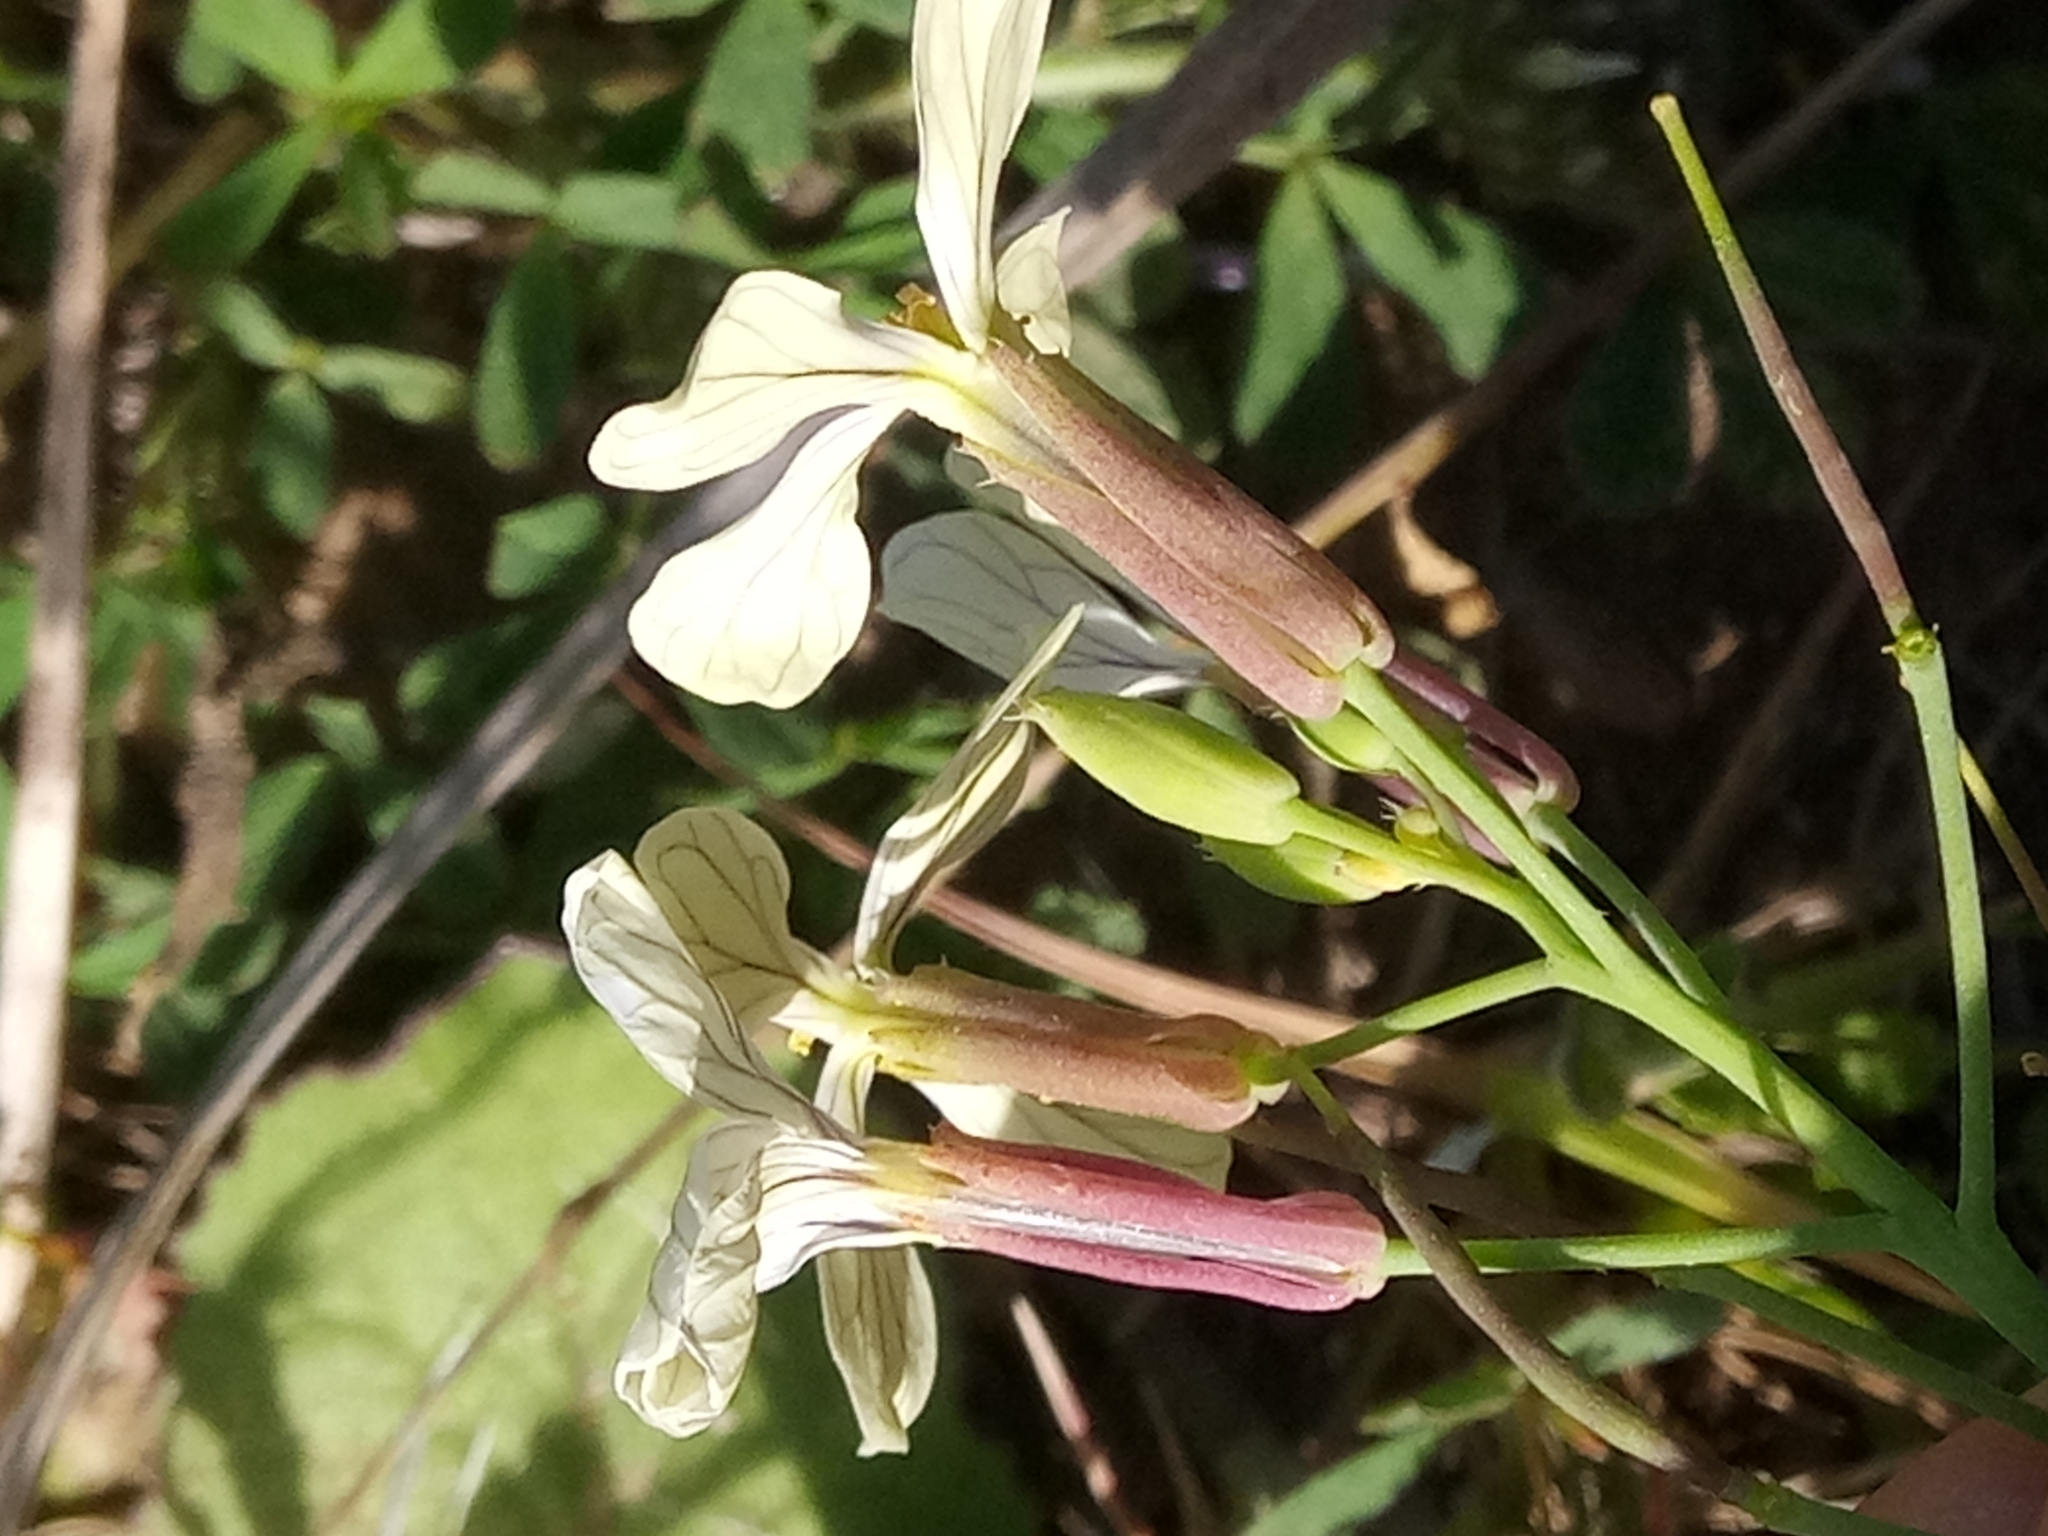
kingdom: Plantae
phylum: Tracheophyta
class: Magnoliopsida
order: Brassicales
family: Brassicaceae
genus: Raphanus
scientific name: Raphanus raphanistrum
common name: Wild radish
